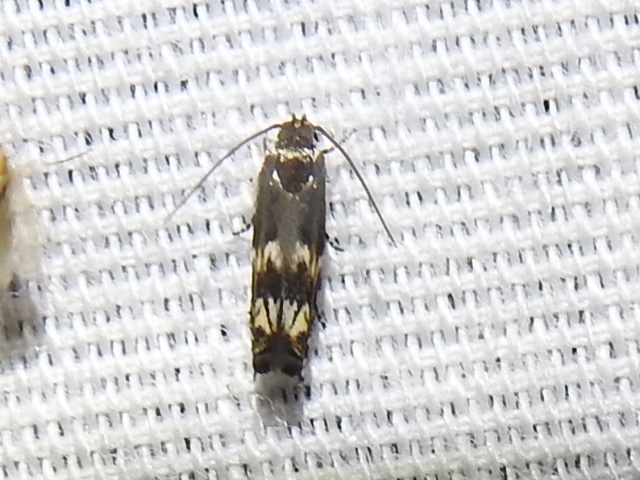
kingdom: Animalia
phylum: Arthropoda
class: Insecta
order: Lepidoptera
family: Gelechiidae
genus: Calliprora
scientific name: Calliprora sexstrigella
